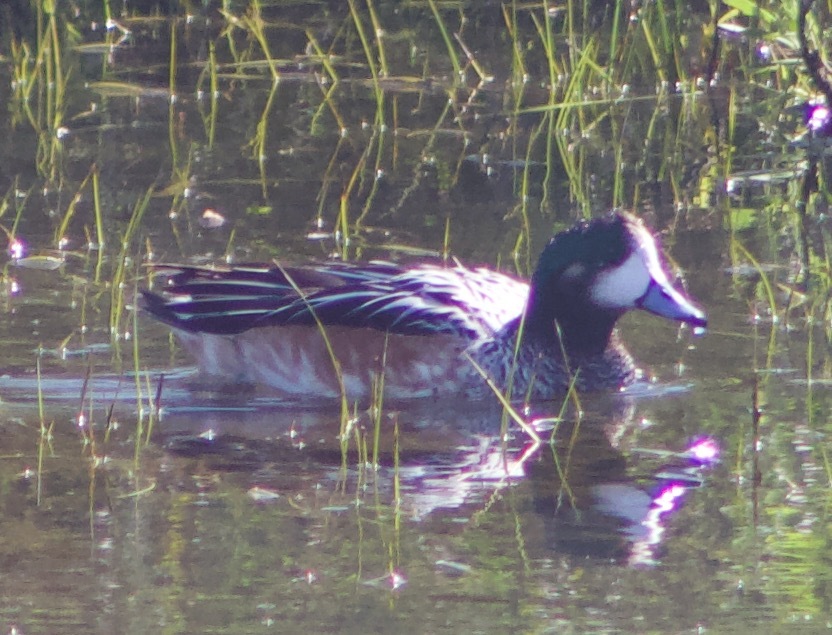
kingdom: Animalia
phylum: Chordata
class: Aves
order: Anseriformes
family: Anatidae
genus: Mareca
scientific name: Mareca sibilatrix
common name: Chiloe wigeon
